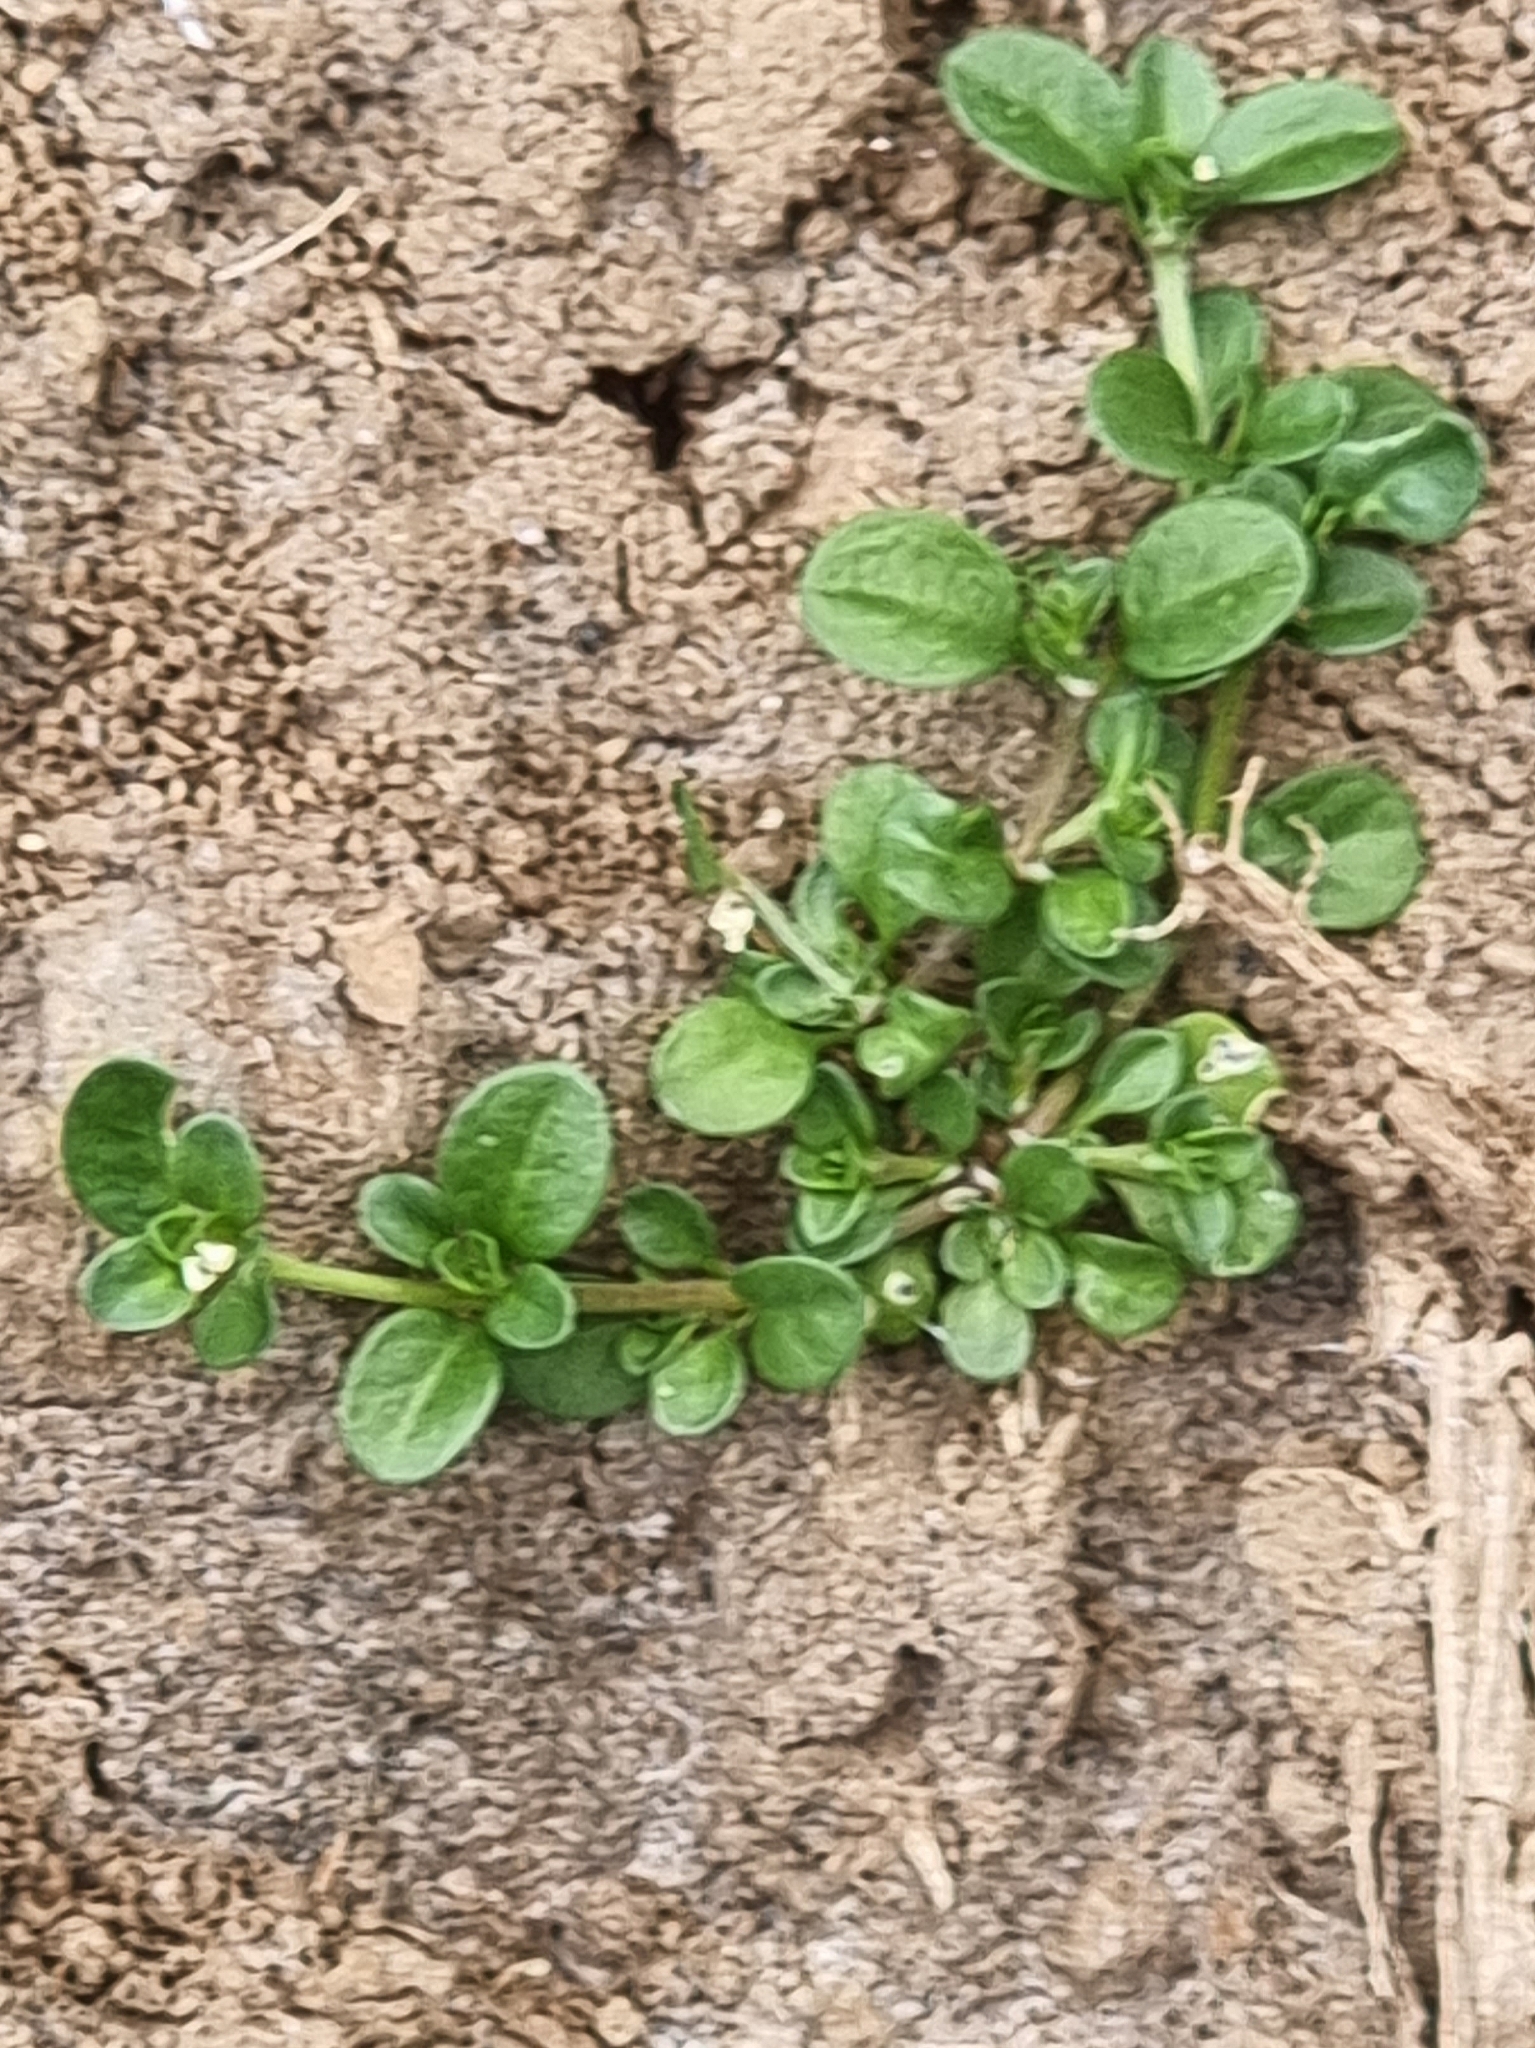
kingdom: Plantae
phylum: Tracheophyta
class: Magnoliopsida
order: Caryophyllales
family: Caryophyllaceae
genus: Polycarpon
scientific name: Polycarpon tetraphyllum
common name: Four-leaved all-seed
